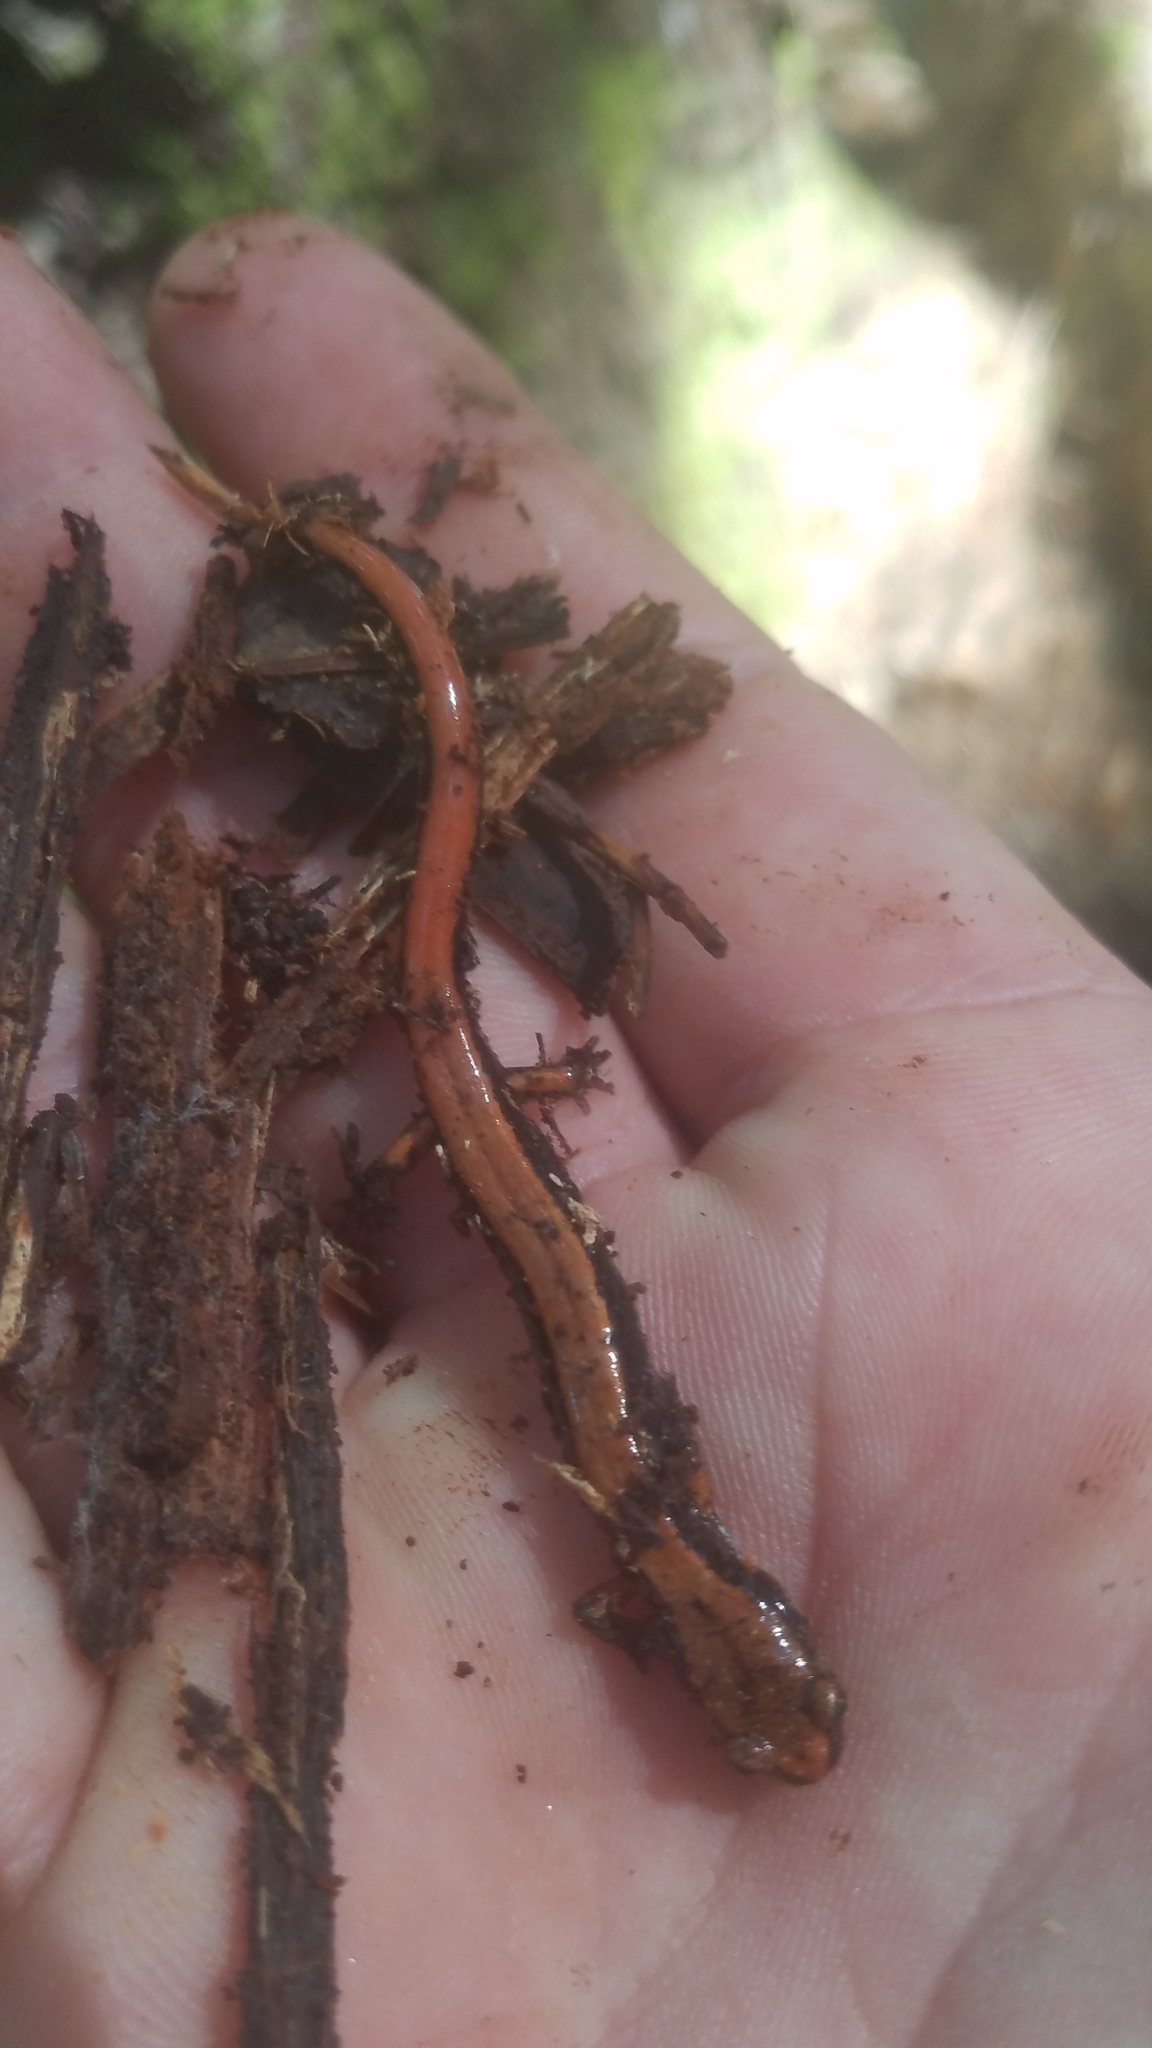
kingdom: Animalia
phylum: Chordata
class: Amphibia
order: Caudata
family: Plethodontidae
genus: Plethodon
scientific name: Plethodon vehiculum
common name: Western red-backed salamander
